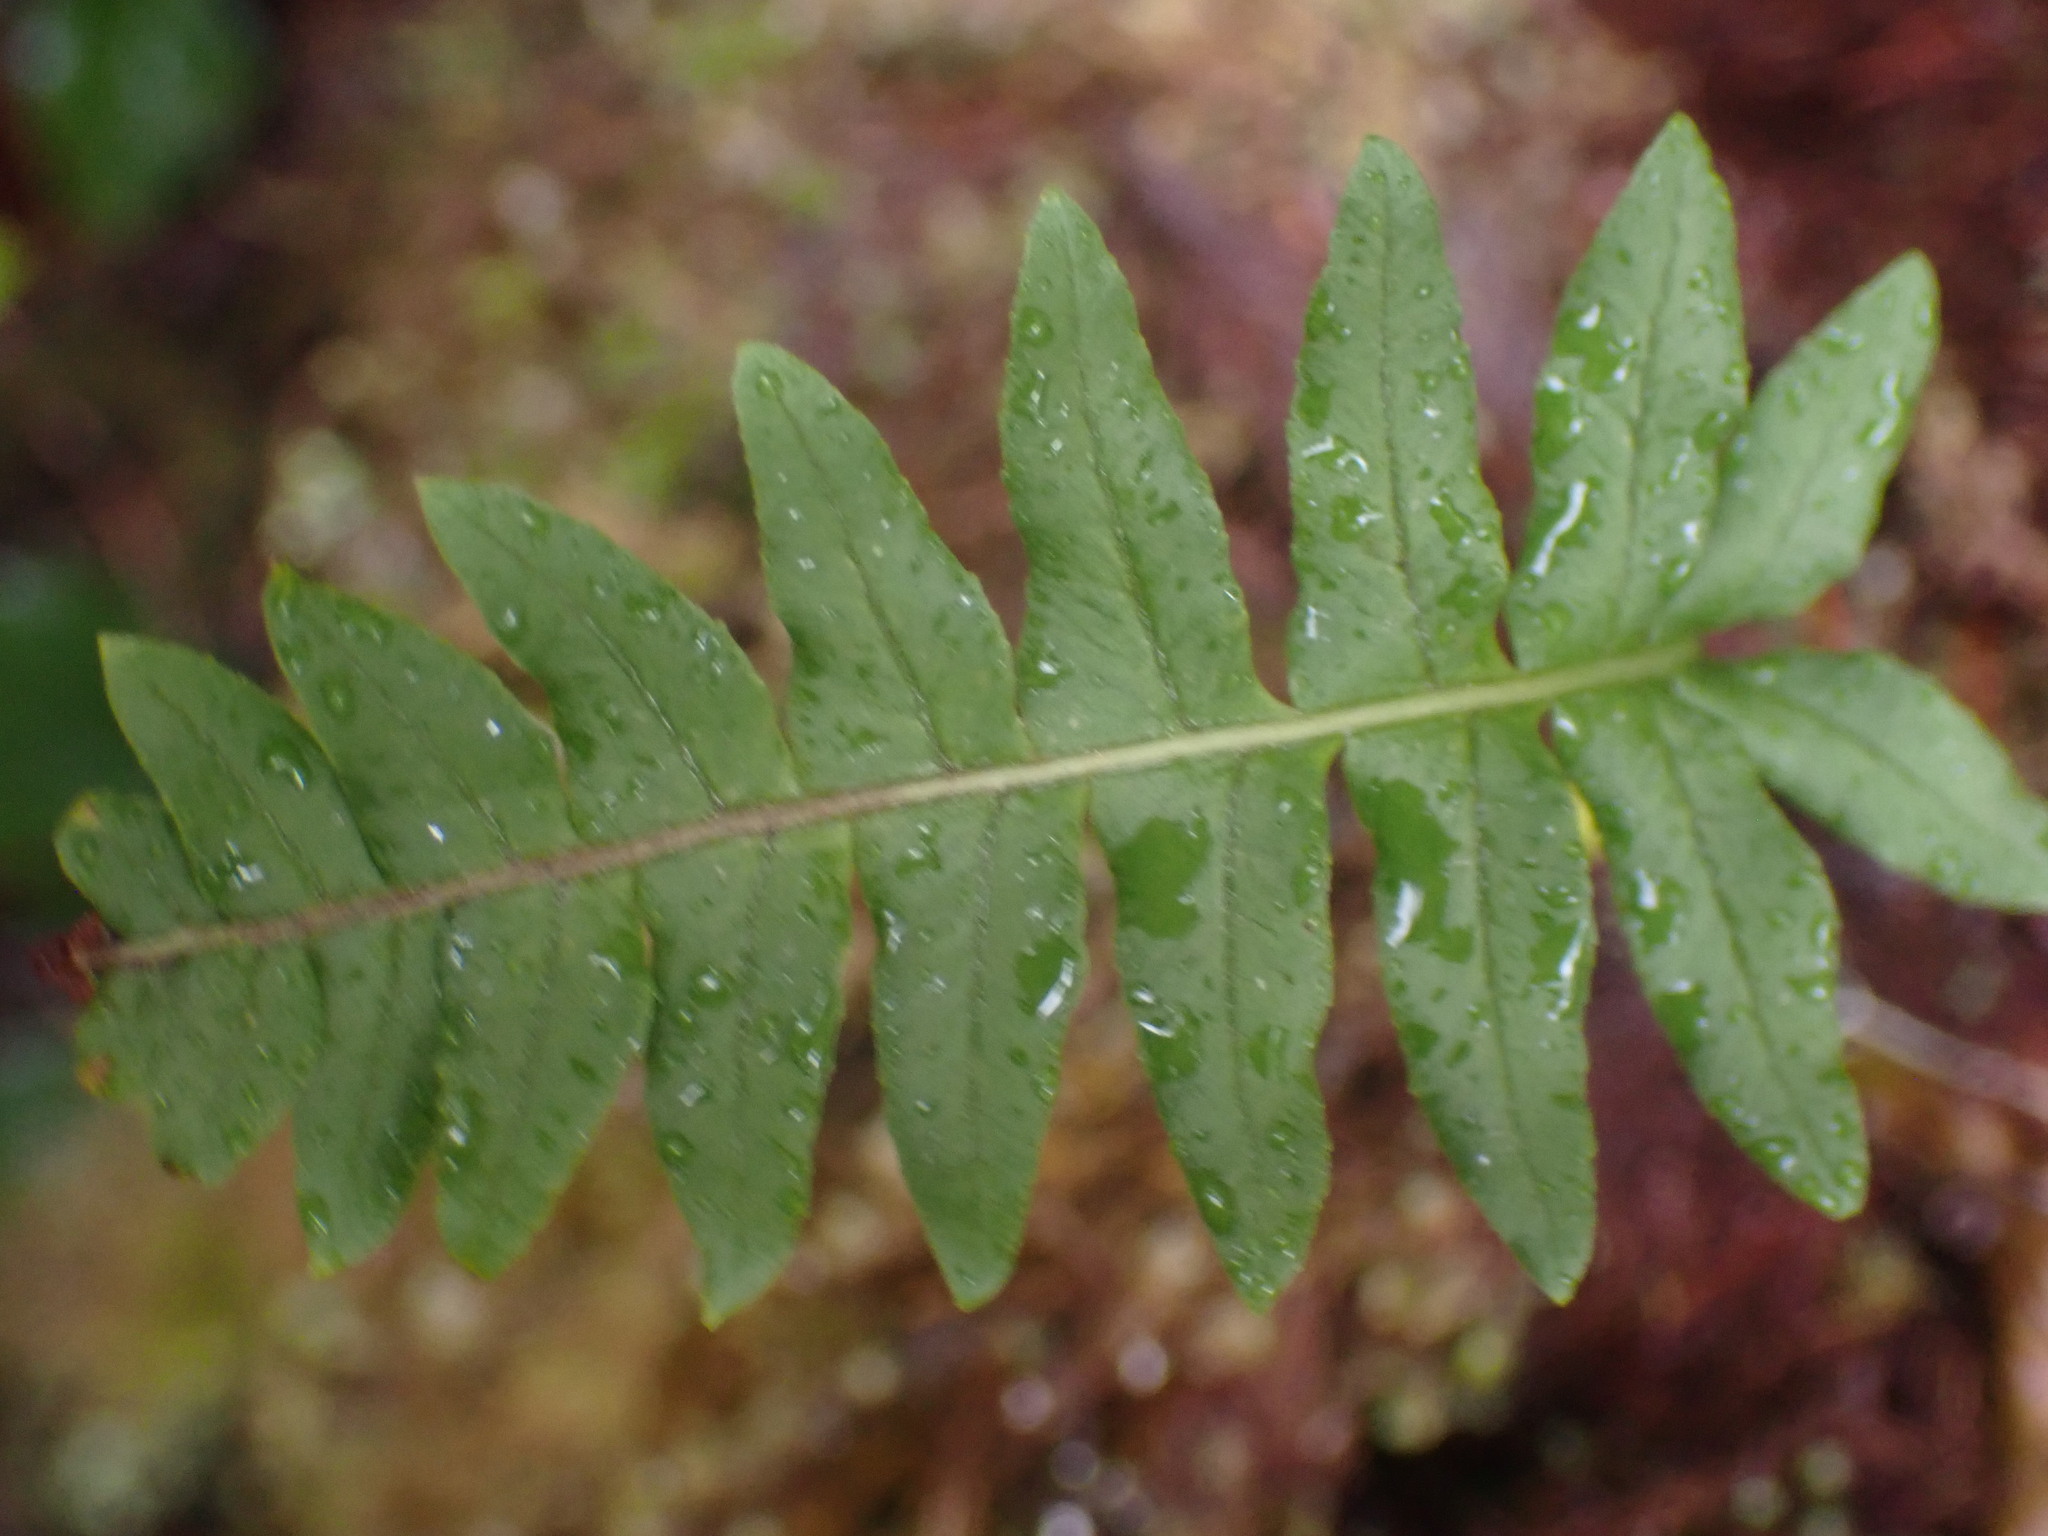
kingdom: Plantae
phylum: Tracheophyta
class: Polypodiopsida
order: Polypodiales
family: Polypodiaceae
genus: Polypodium
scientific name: Polypodium glycyrrhiza
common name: Licorice fern
